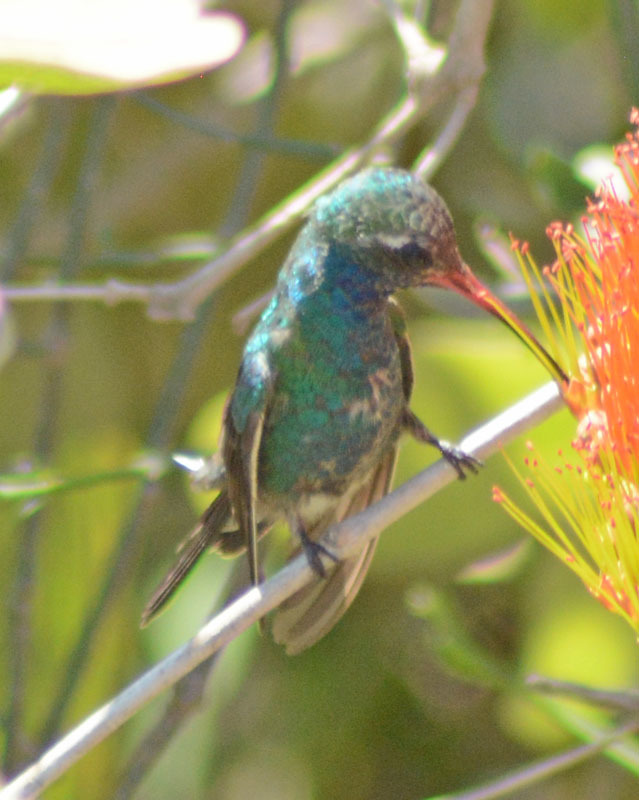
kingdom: Animalia
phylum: Chordata
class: Aves
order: Apodiformes
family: Trochilidae
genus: Cynanthus
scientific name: Cynanthus latirostris
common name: Broad-billed hummingbird
